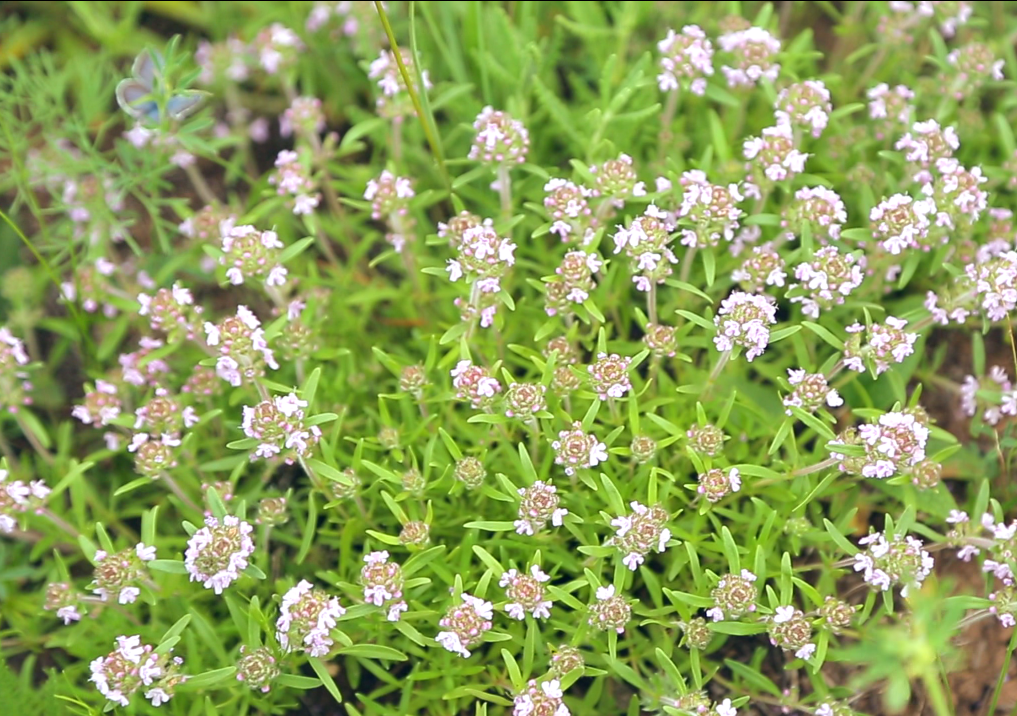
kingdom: Plantae
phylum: Tracheophyta
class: Magnoliopsida
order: Lamiales
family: Lamiaceae
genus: Thymus
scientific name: Thymus dimorphus
